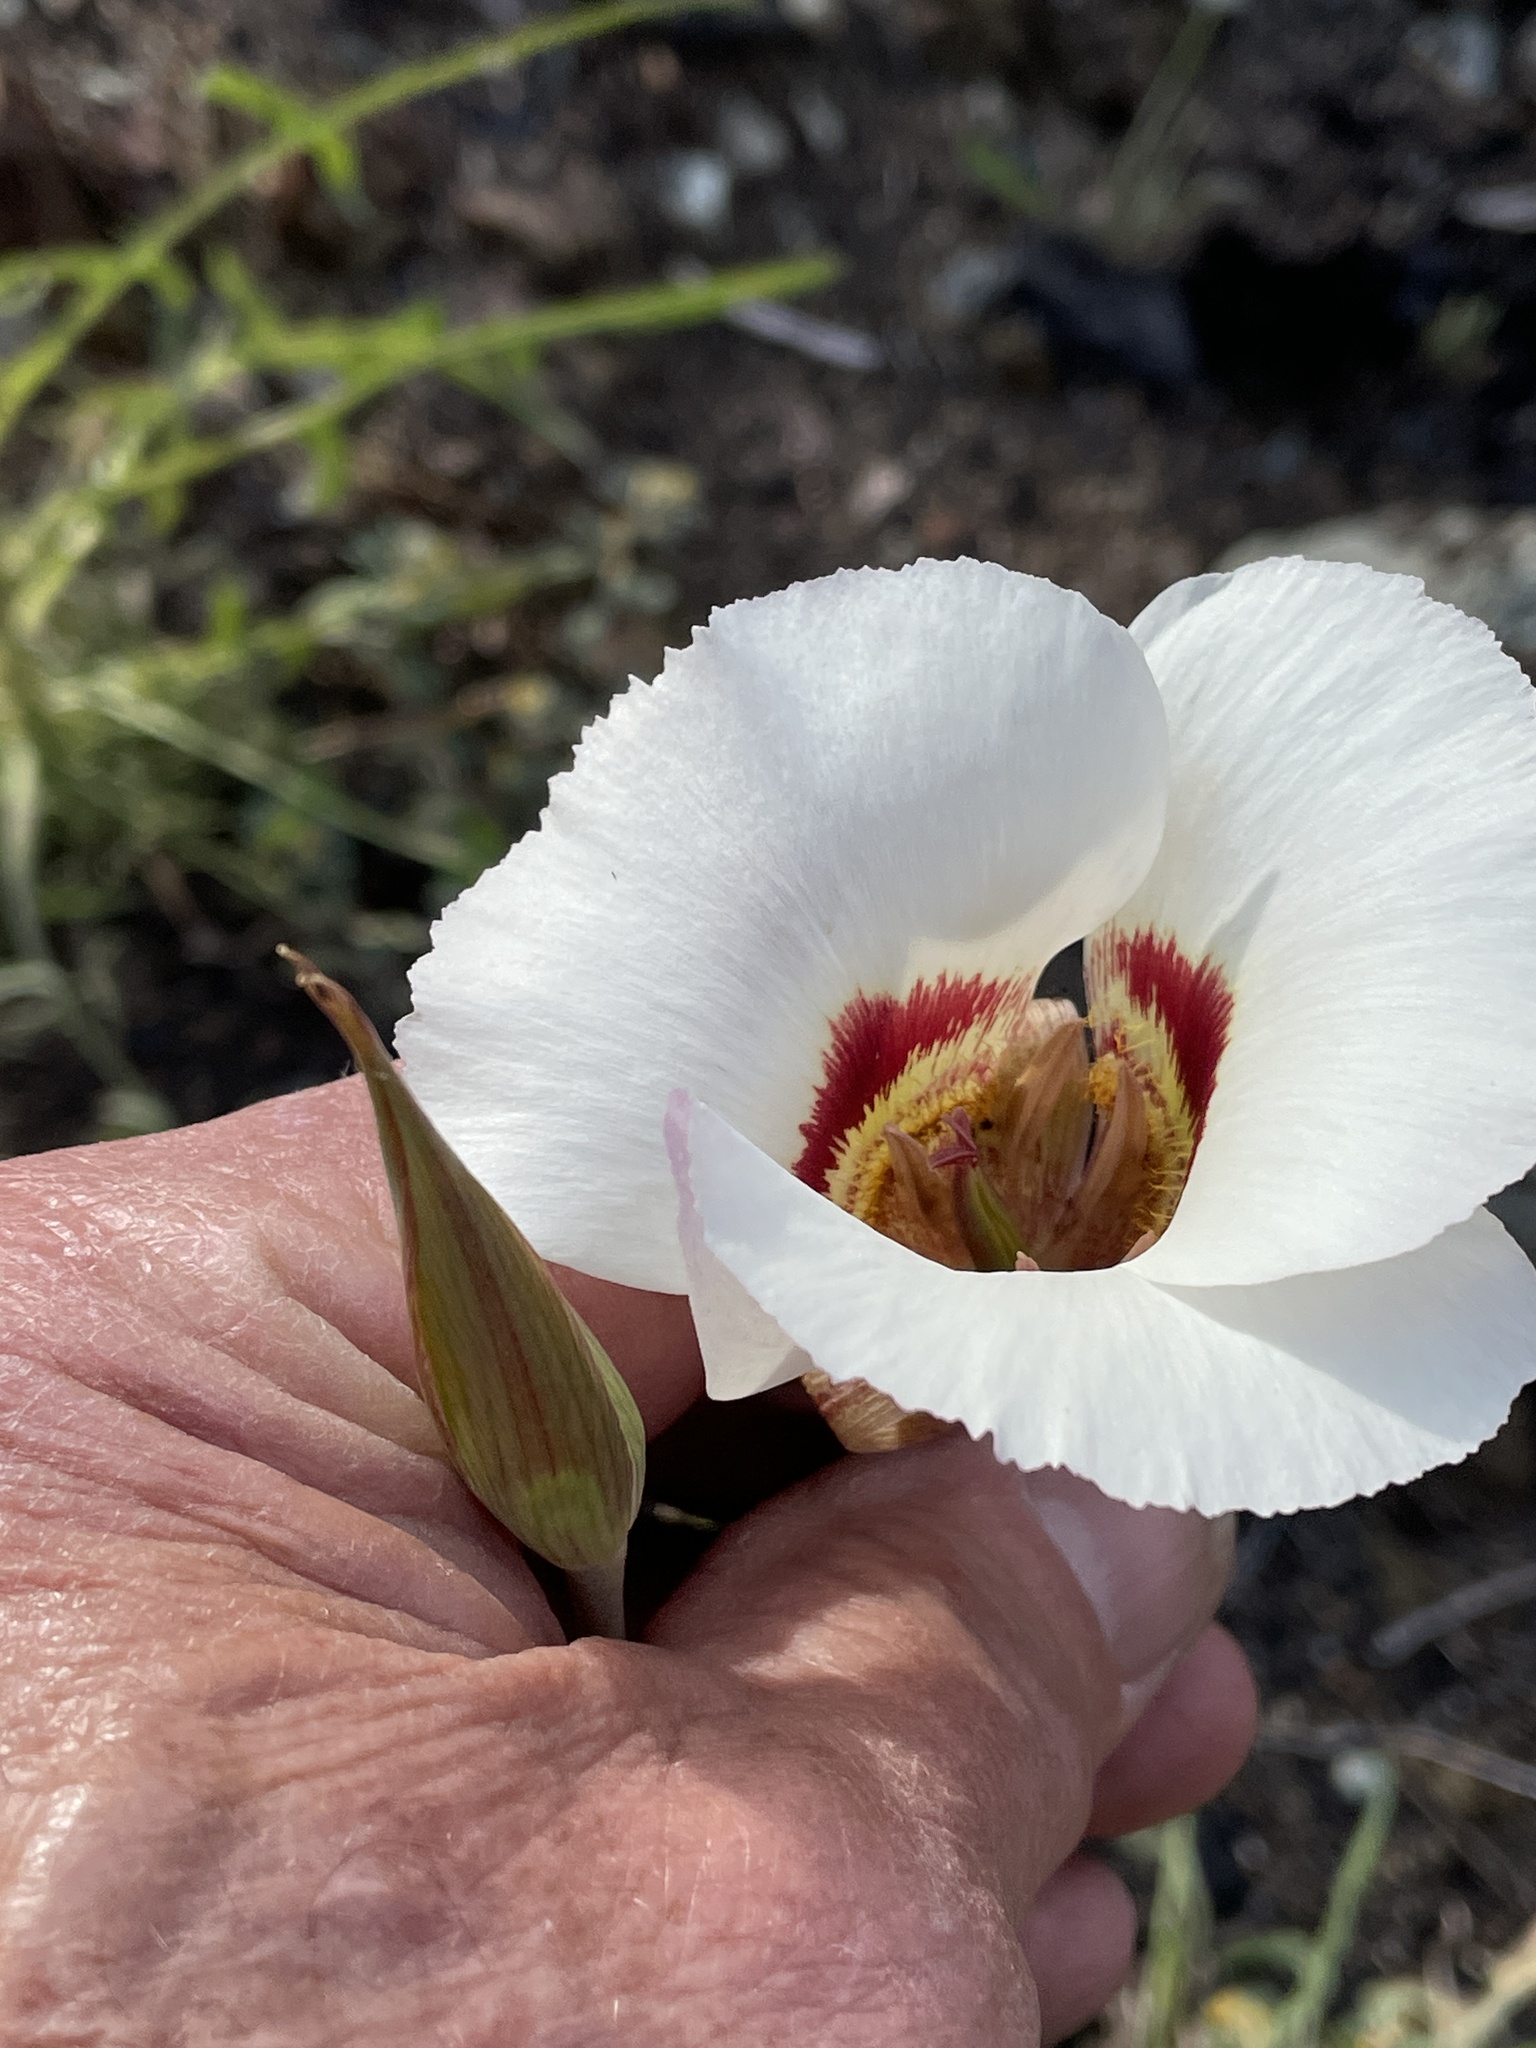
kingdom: Plantae
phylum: Tracheophyta
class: Liliopsida
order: Liliales
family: Liliaceae
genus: Calochortus
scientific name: Calochortus vestae
